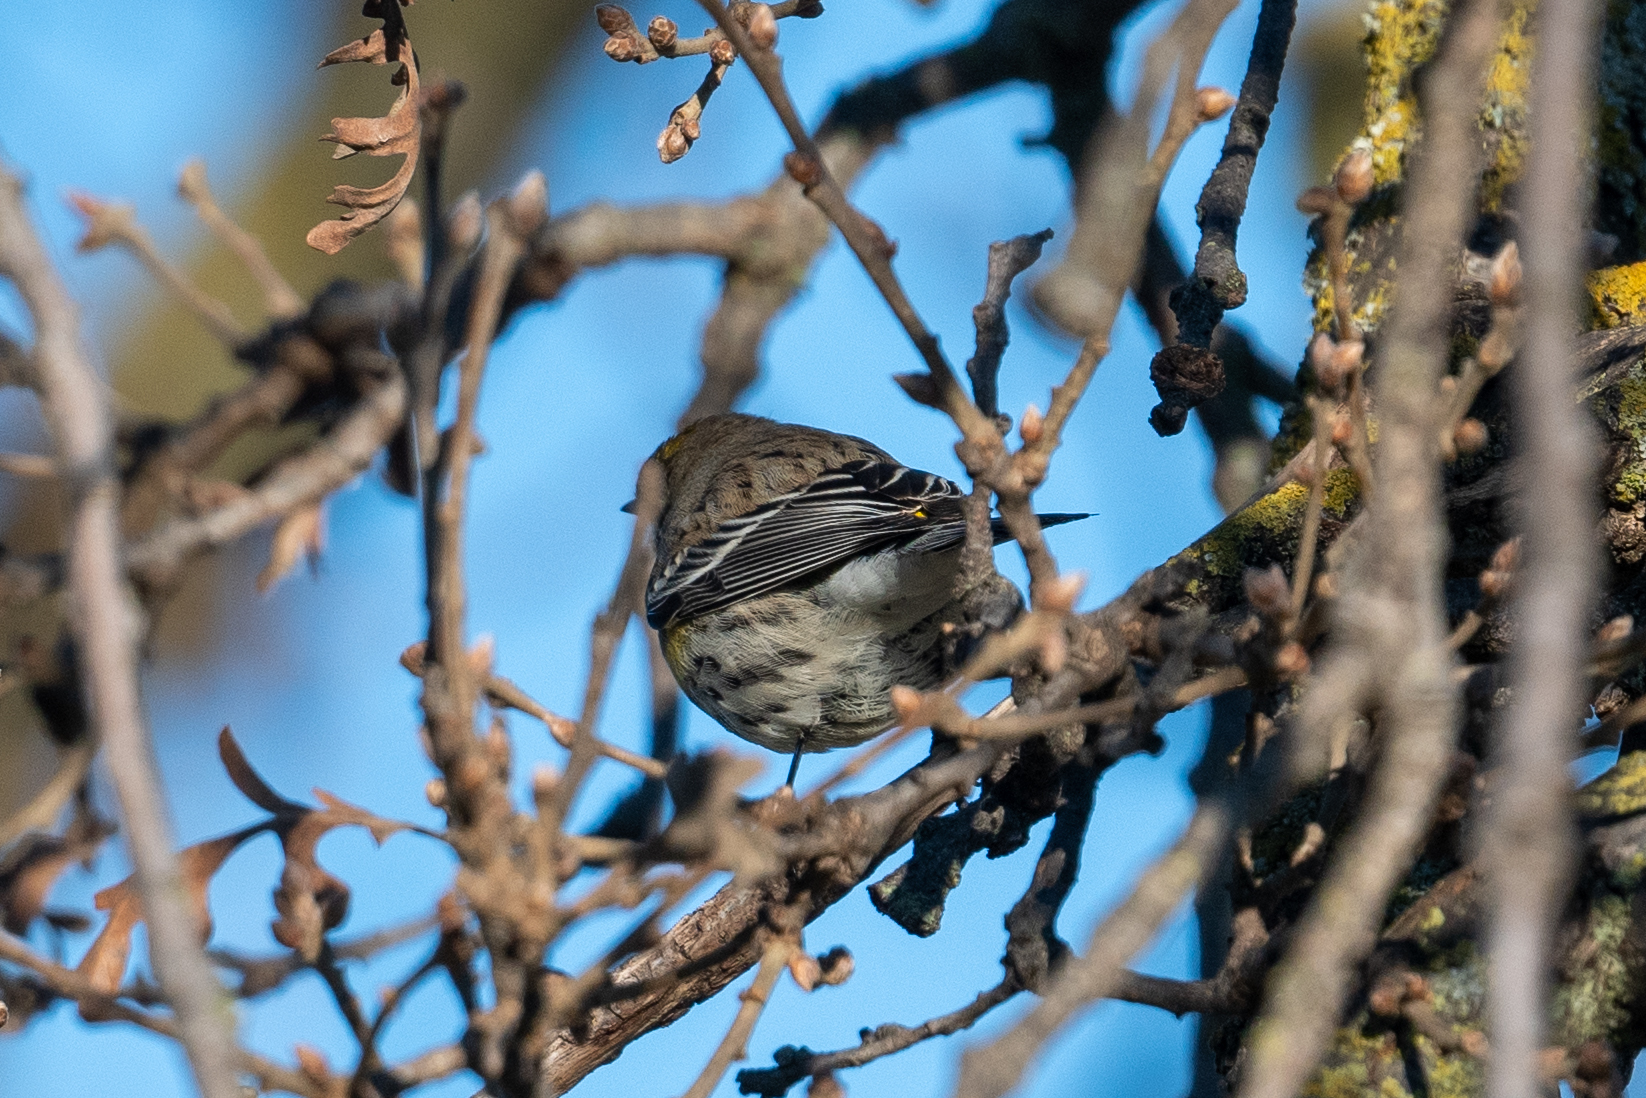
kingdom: Animalia
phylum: Chordata
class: Aves
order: Passeriformes
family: Parulidae
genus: Setophaga
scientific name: Setophaga coronata
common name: Myrtle warbler
